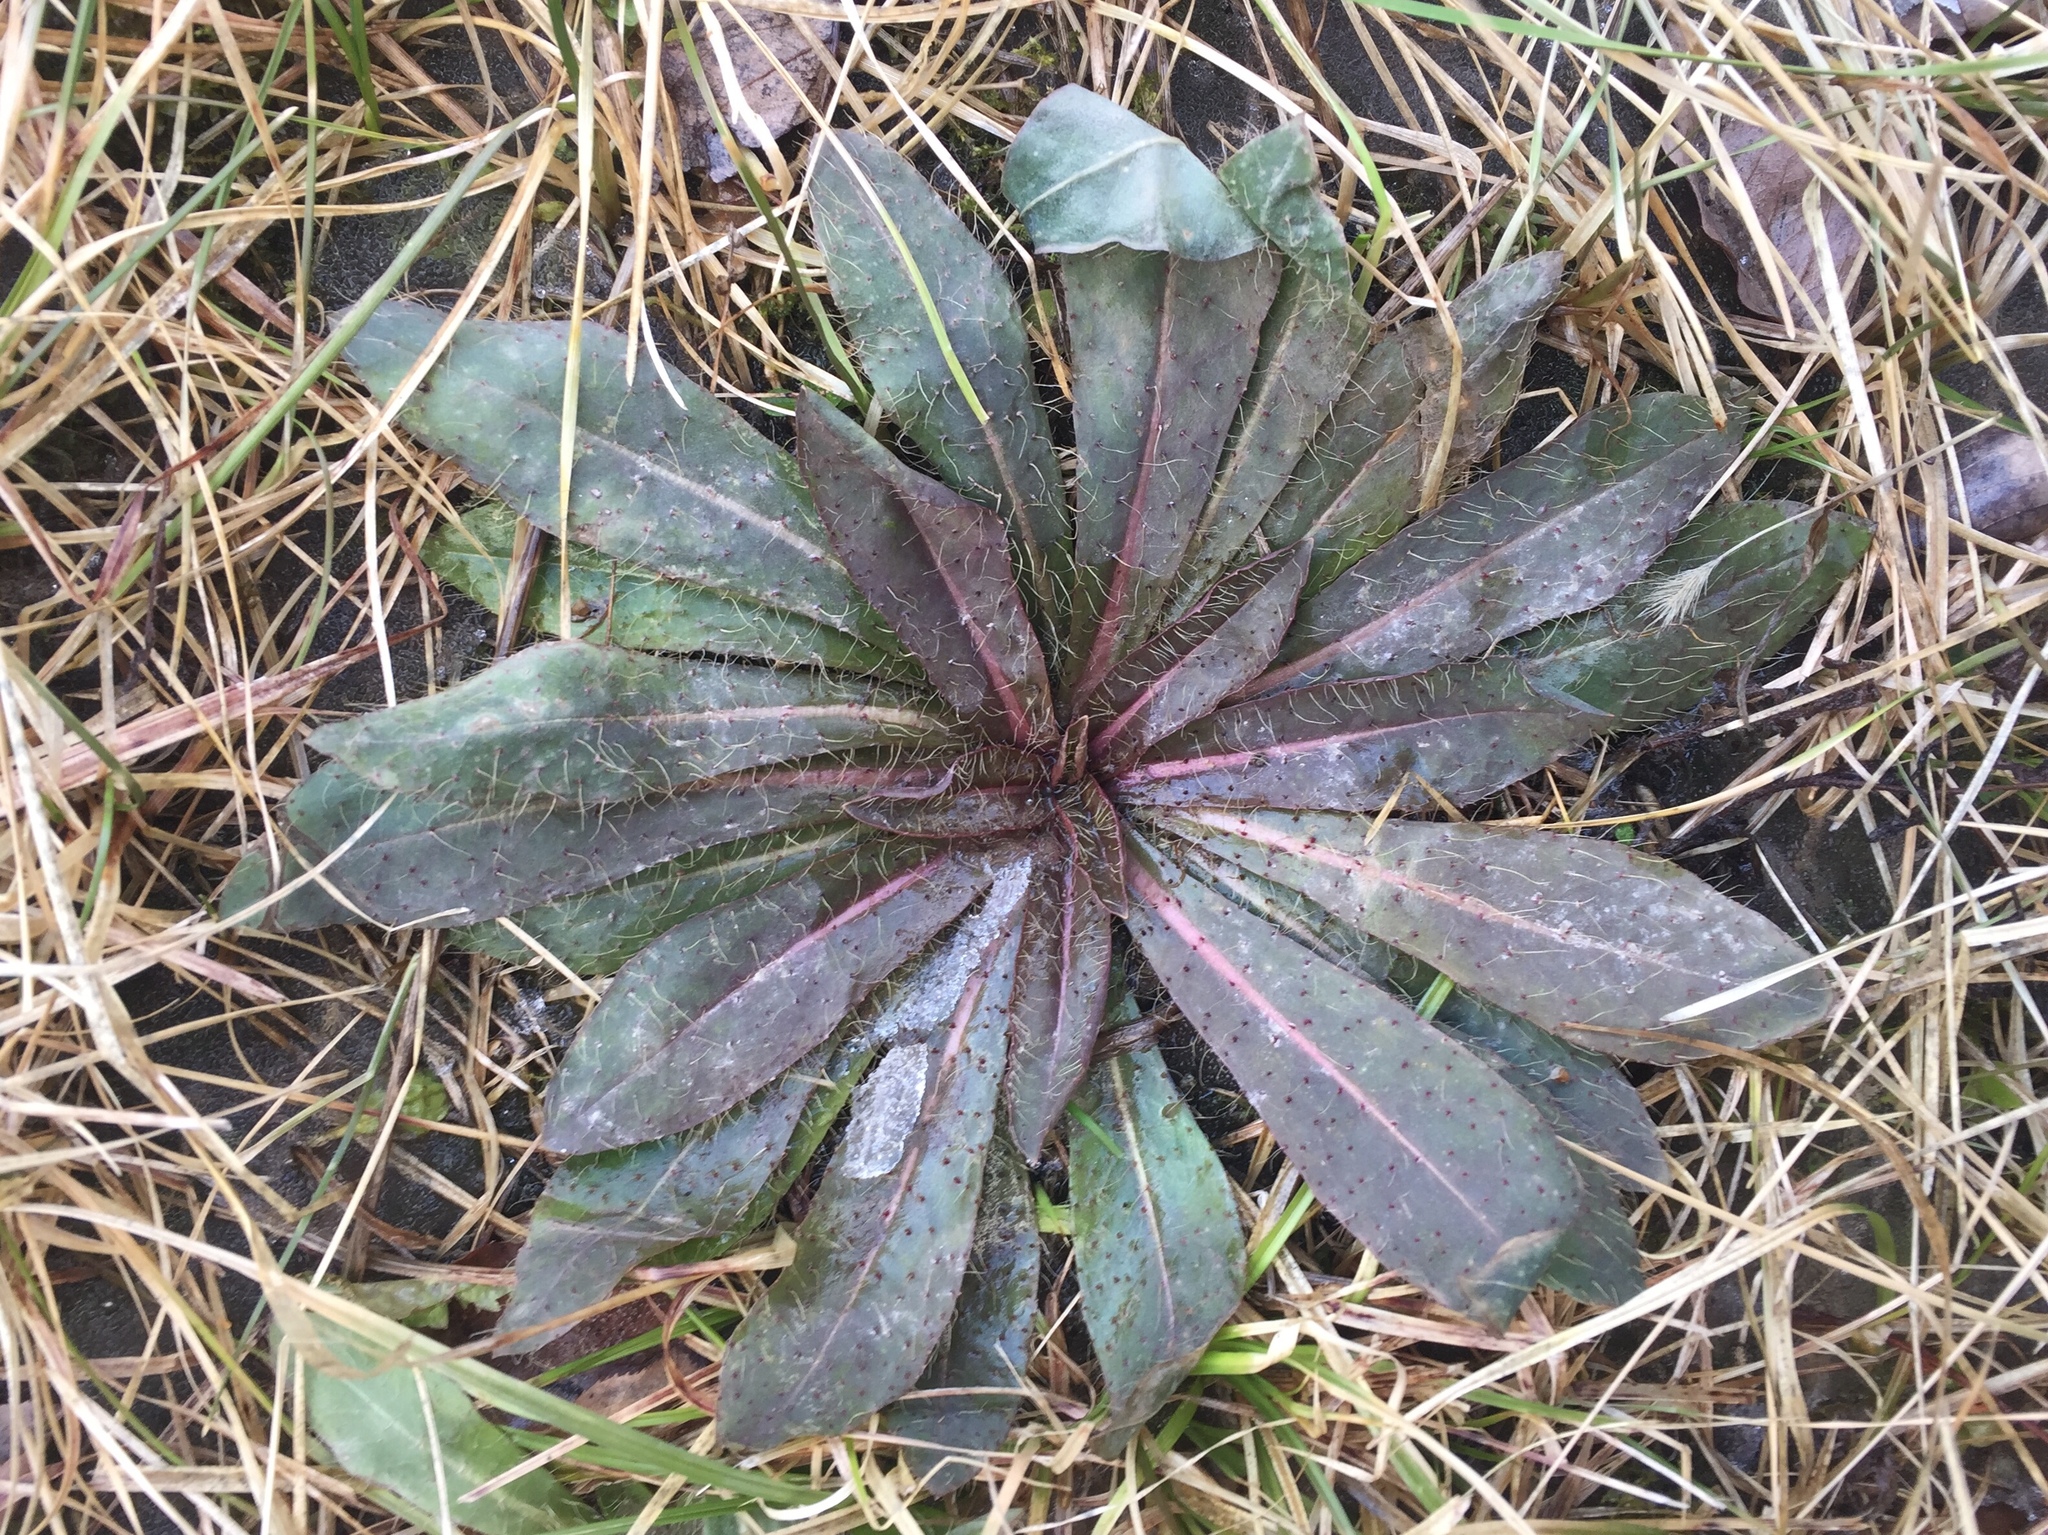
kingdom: Plantae
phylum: Tracheophyta
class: Magnoliopsida
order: Asterales
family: Asteraceae
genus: Pilosella
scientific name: Pilosella caespitosa
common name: Yellow fox-and-cubs
